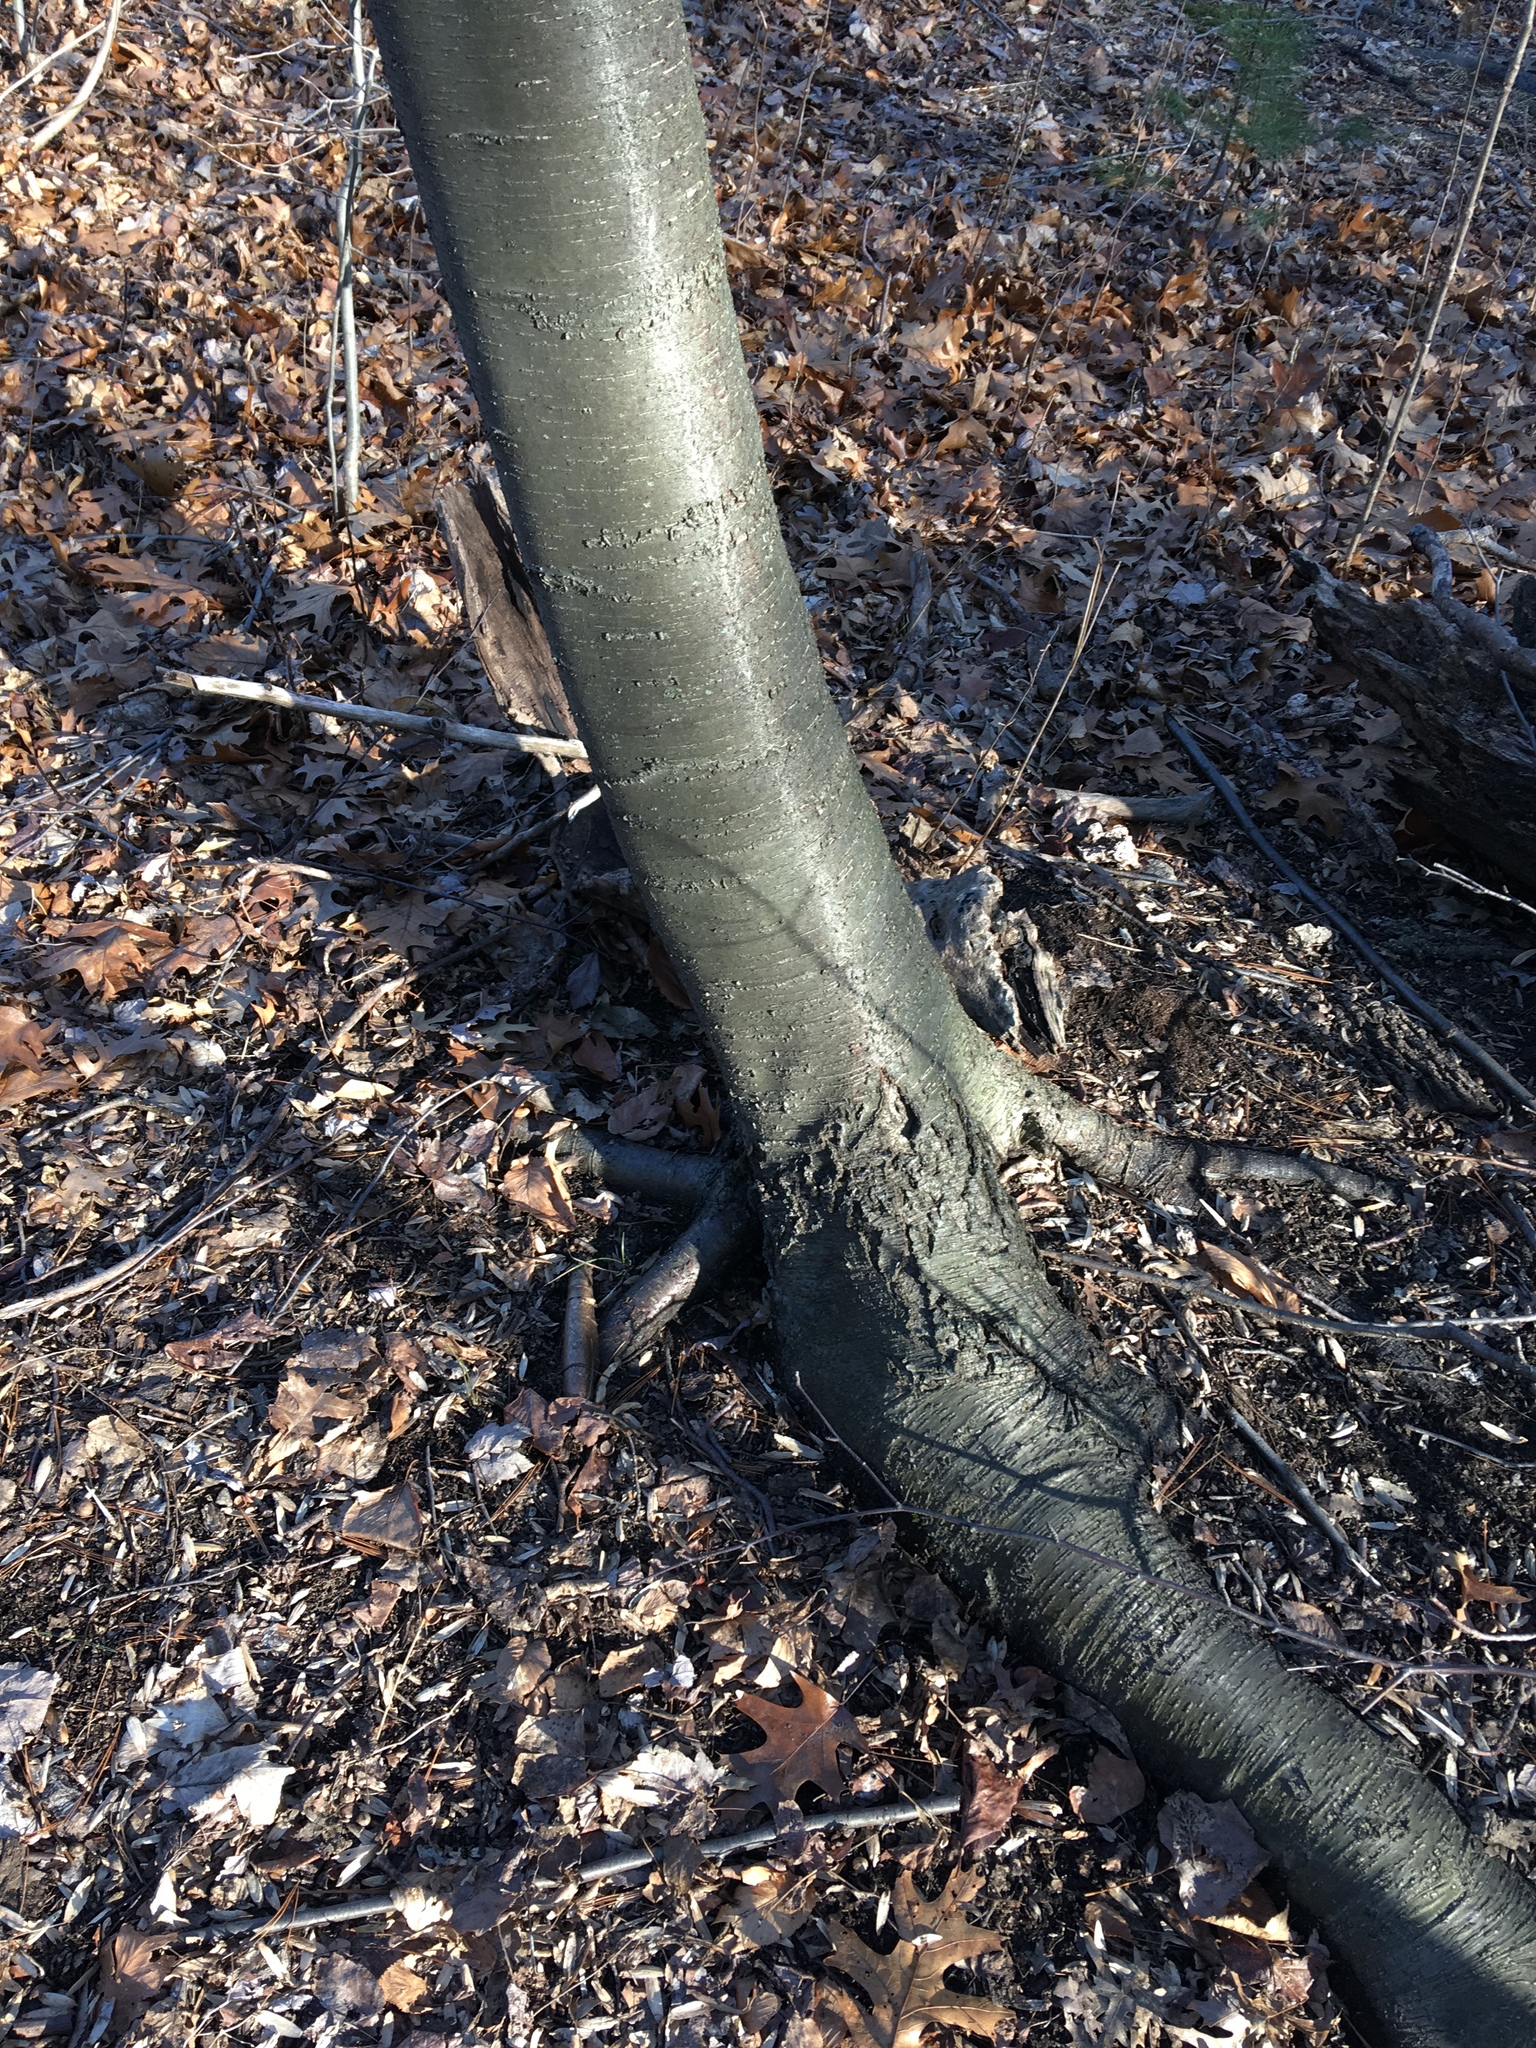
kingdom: Plantae
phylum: Tracheophyta
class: Magnoliopsida
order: Fagales
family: Betulaceae
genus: Betula
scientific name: Betula lenta
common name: Black birch
